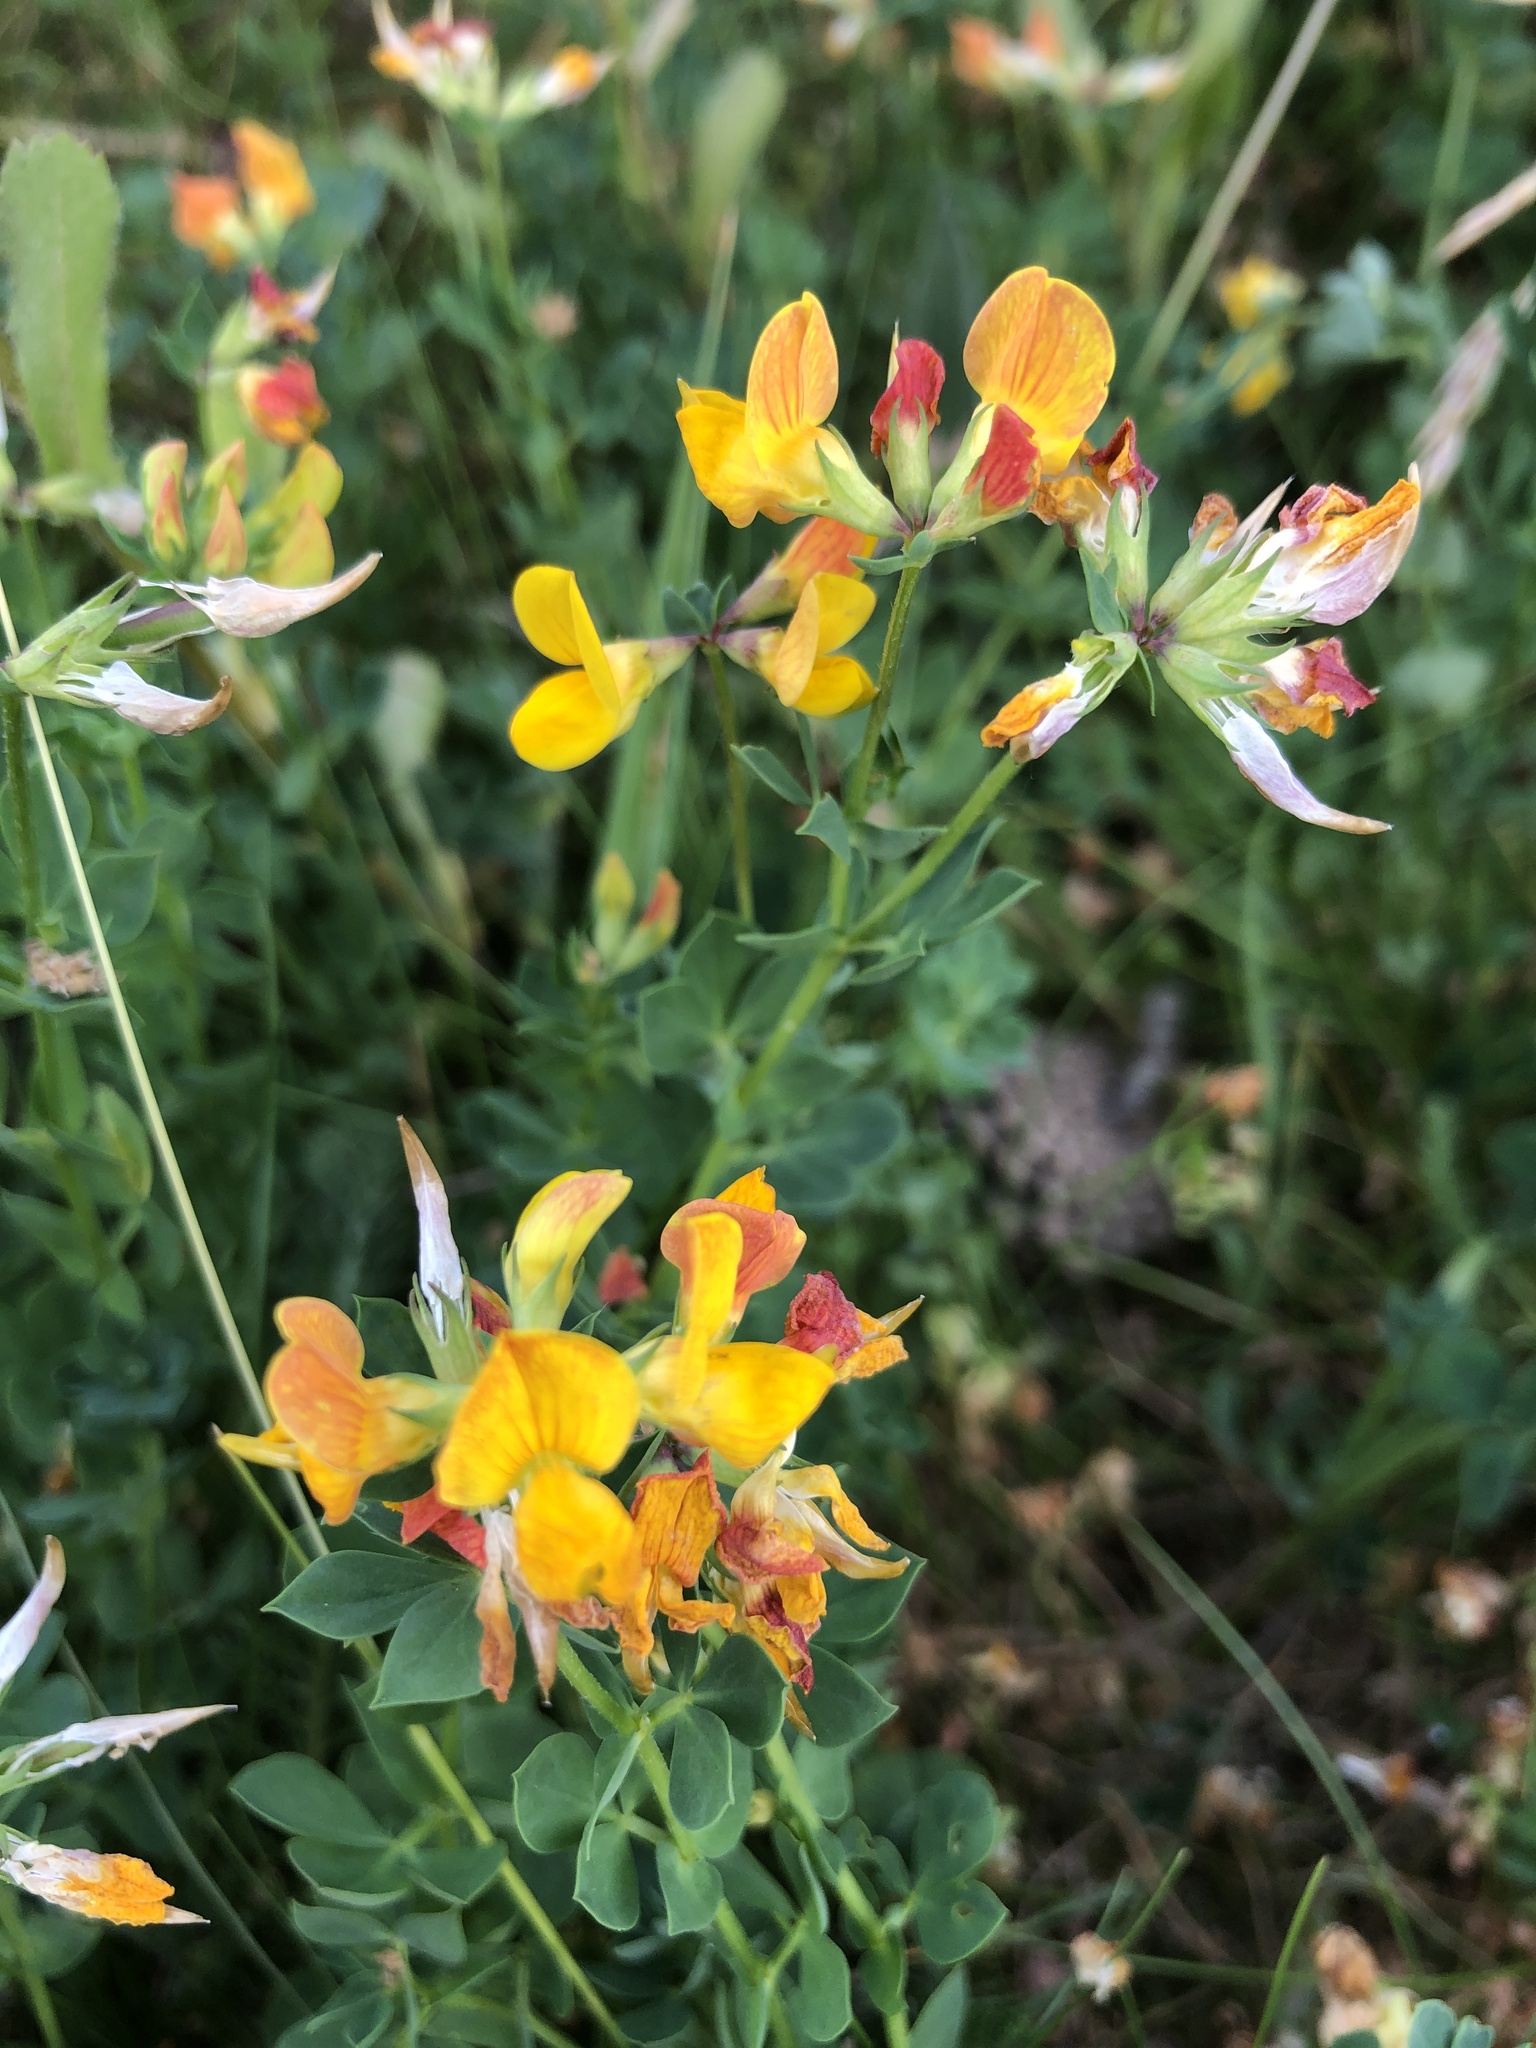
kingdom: Plantae
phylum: Tracheophyta
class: Magnoliopsida
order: Fabales
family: Fabaceae
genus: Lotus
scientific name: Lotus corniculatus
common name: Common bird's-foot-trefoil
